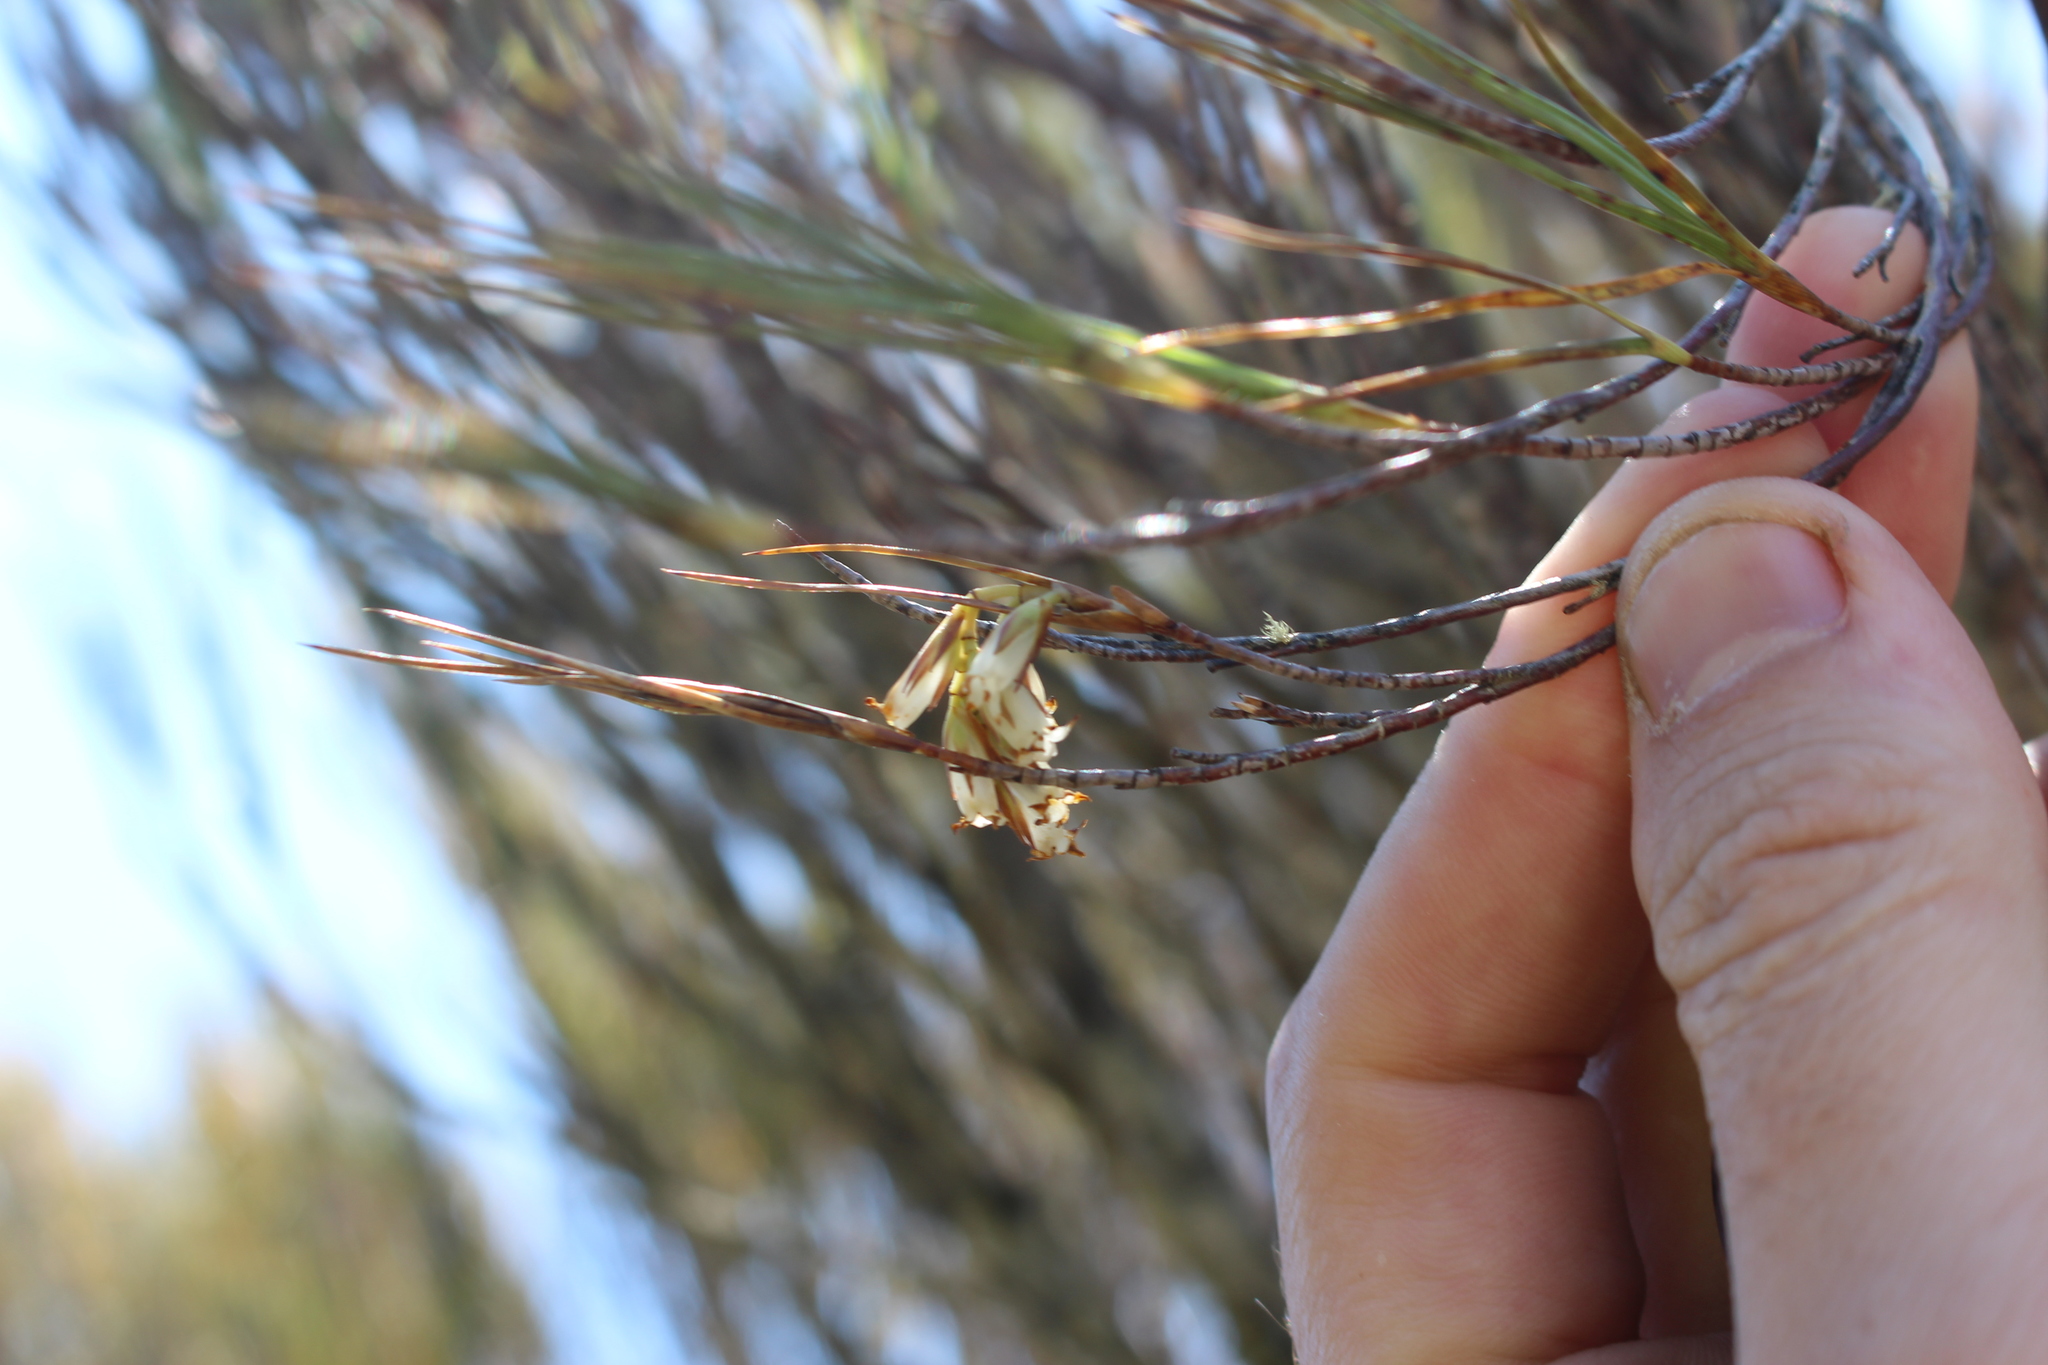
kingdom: Plantae
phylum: Tracheophyta
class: Magnoliopsida
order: Ericales
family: Ericaceae
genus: Dracophyllum
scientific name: Dracophyllum longifolium
